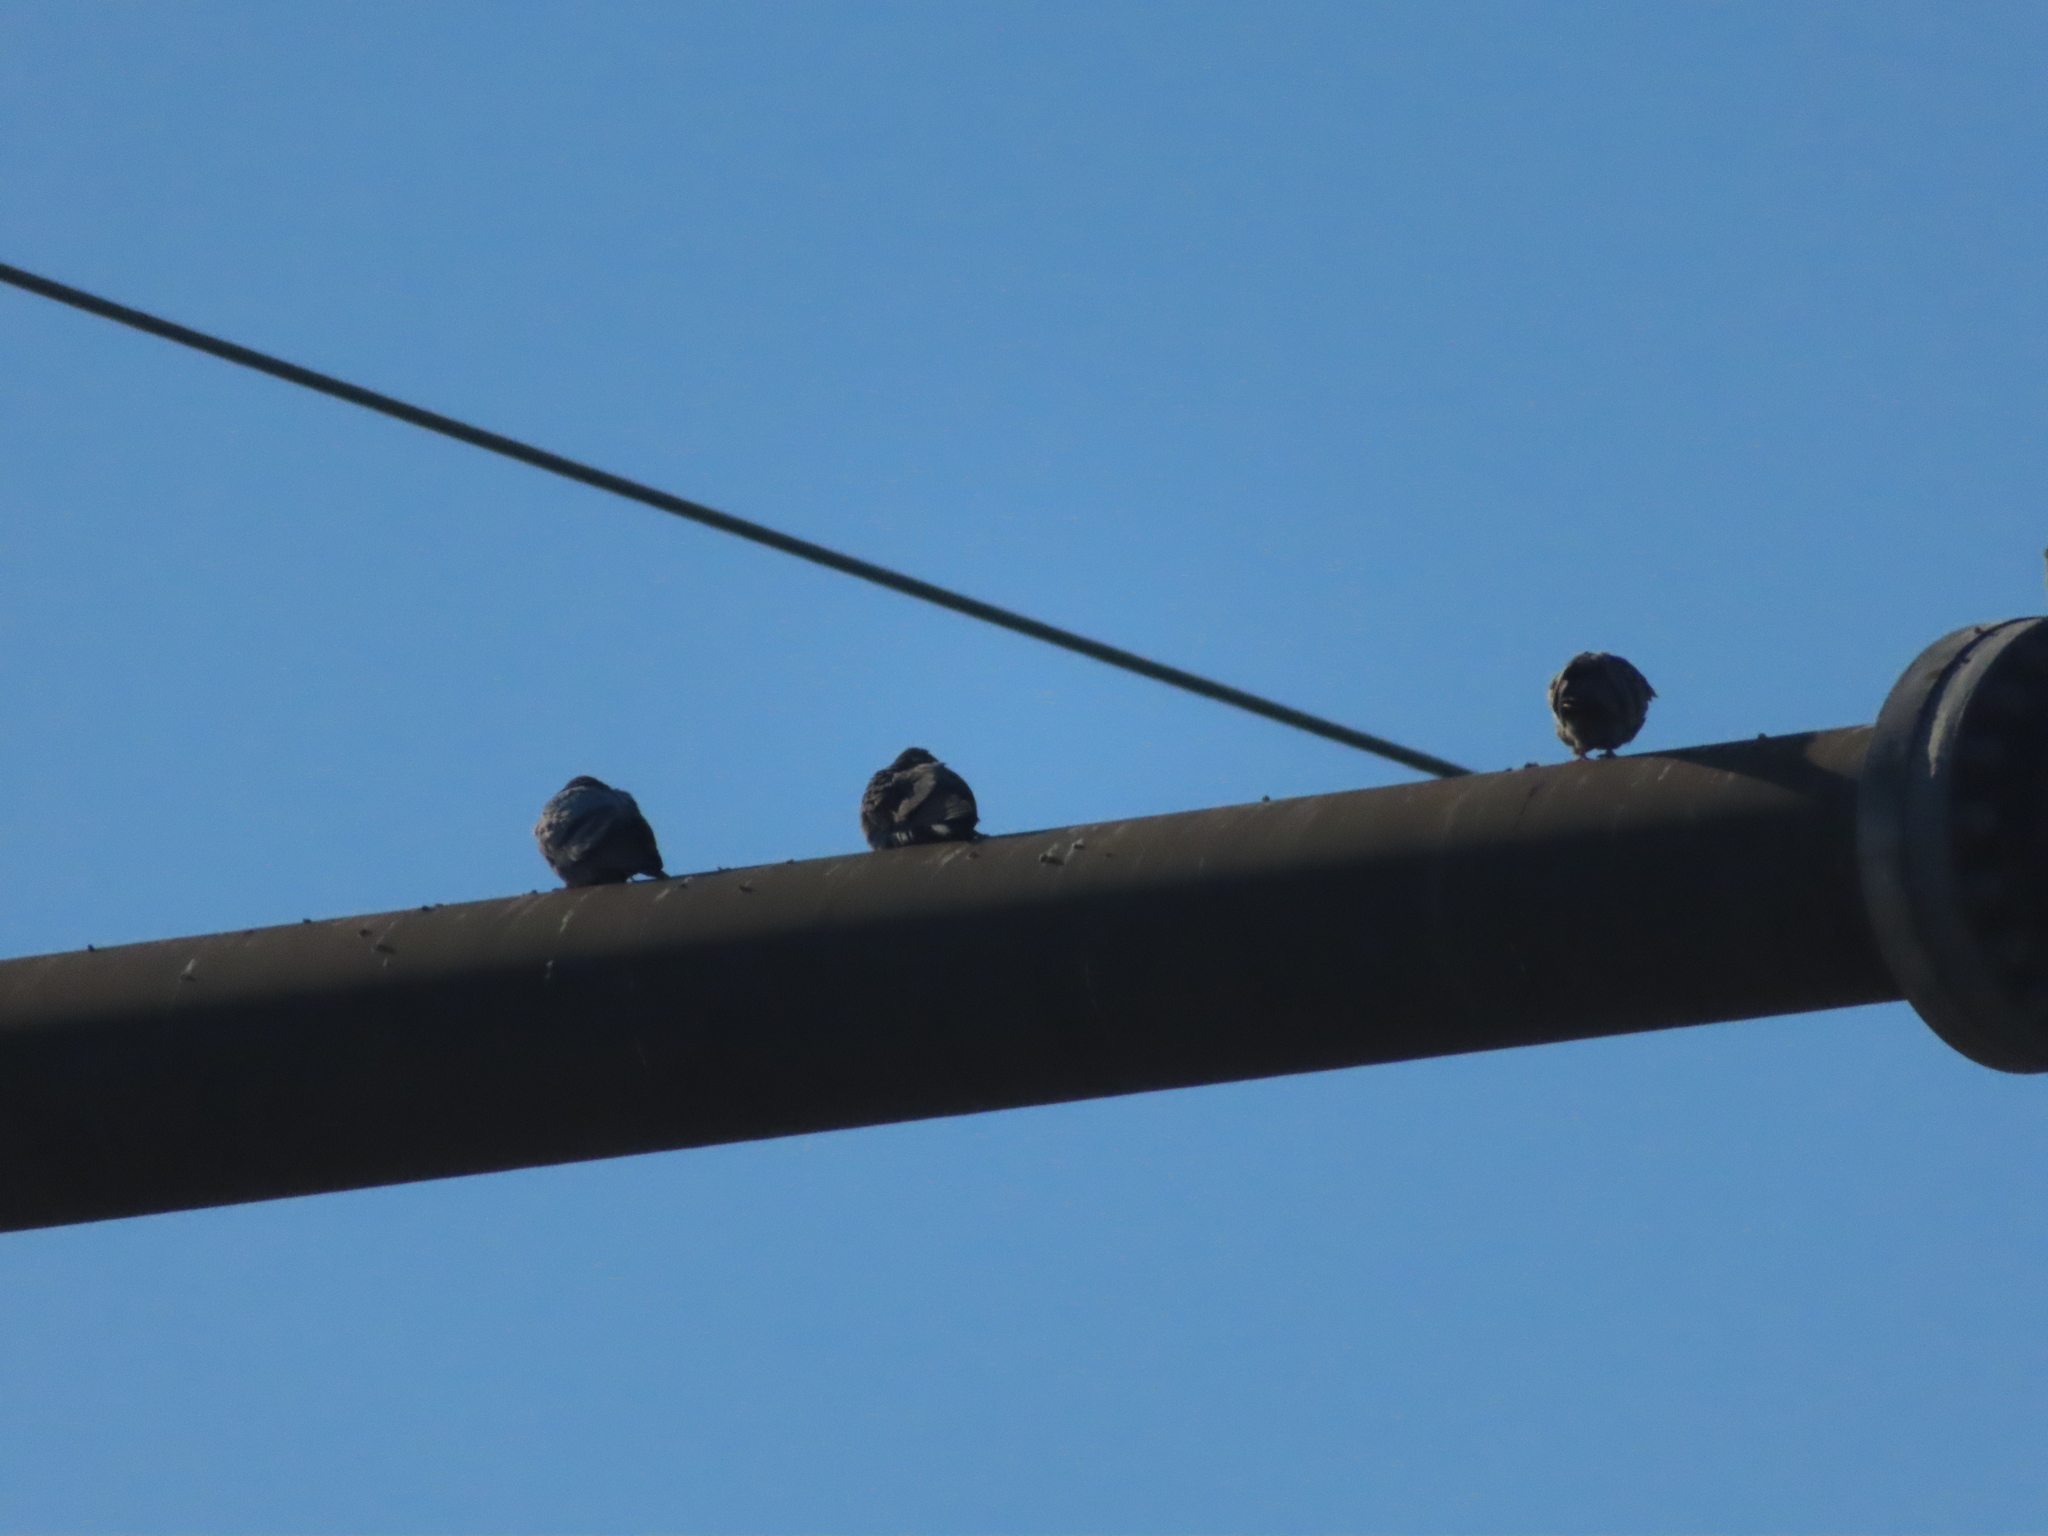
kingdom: Animalia
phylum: Chordata
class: Aves
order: Columbiformes
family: Columbidae
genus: Columba
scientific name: Columba livia
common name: Rock pigeon
